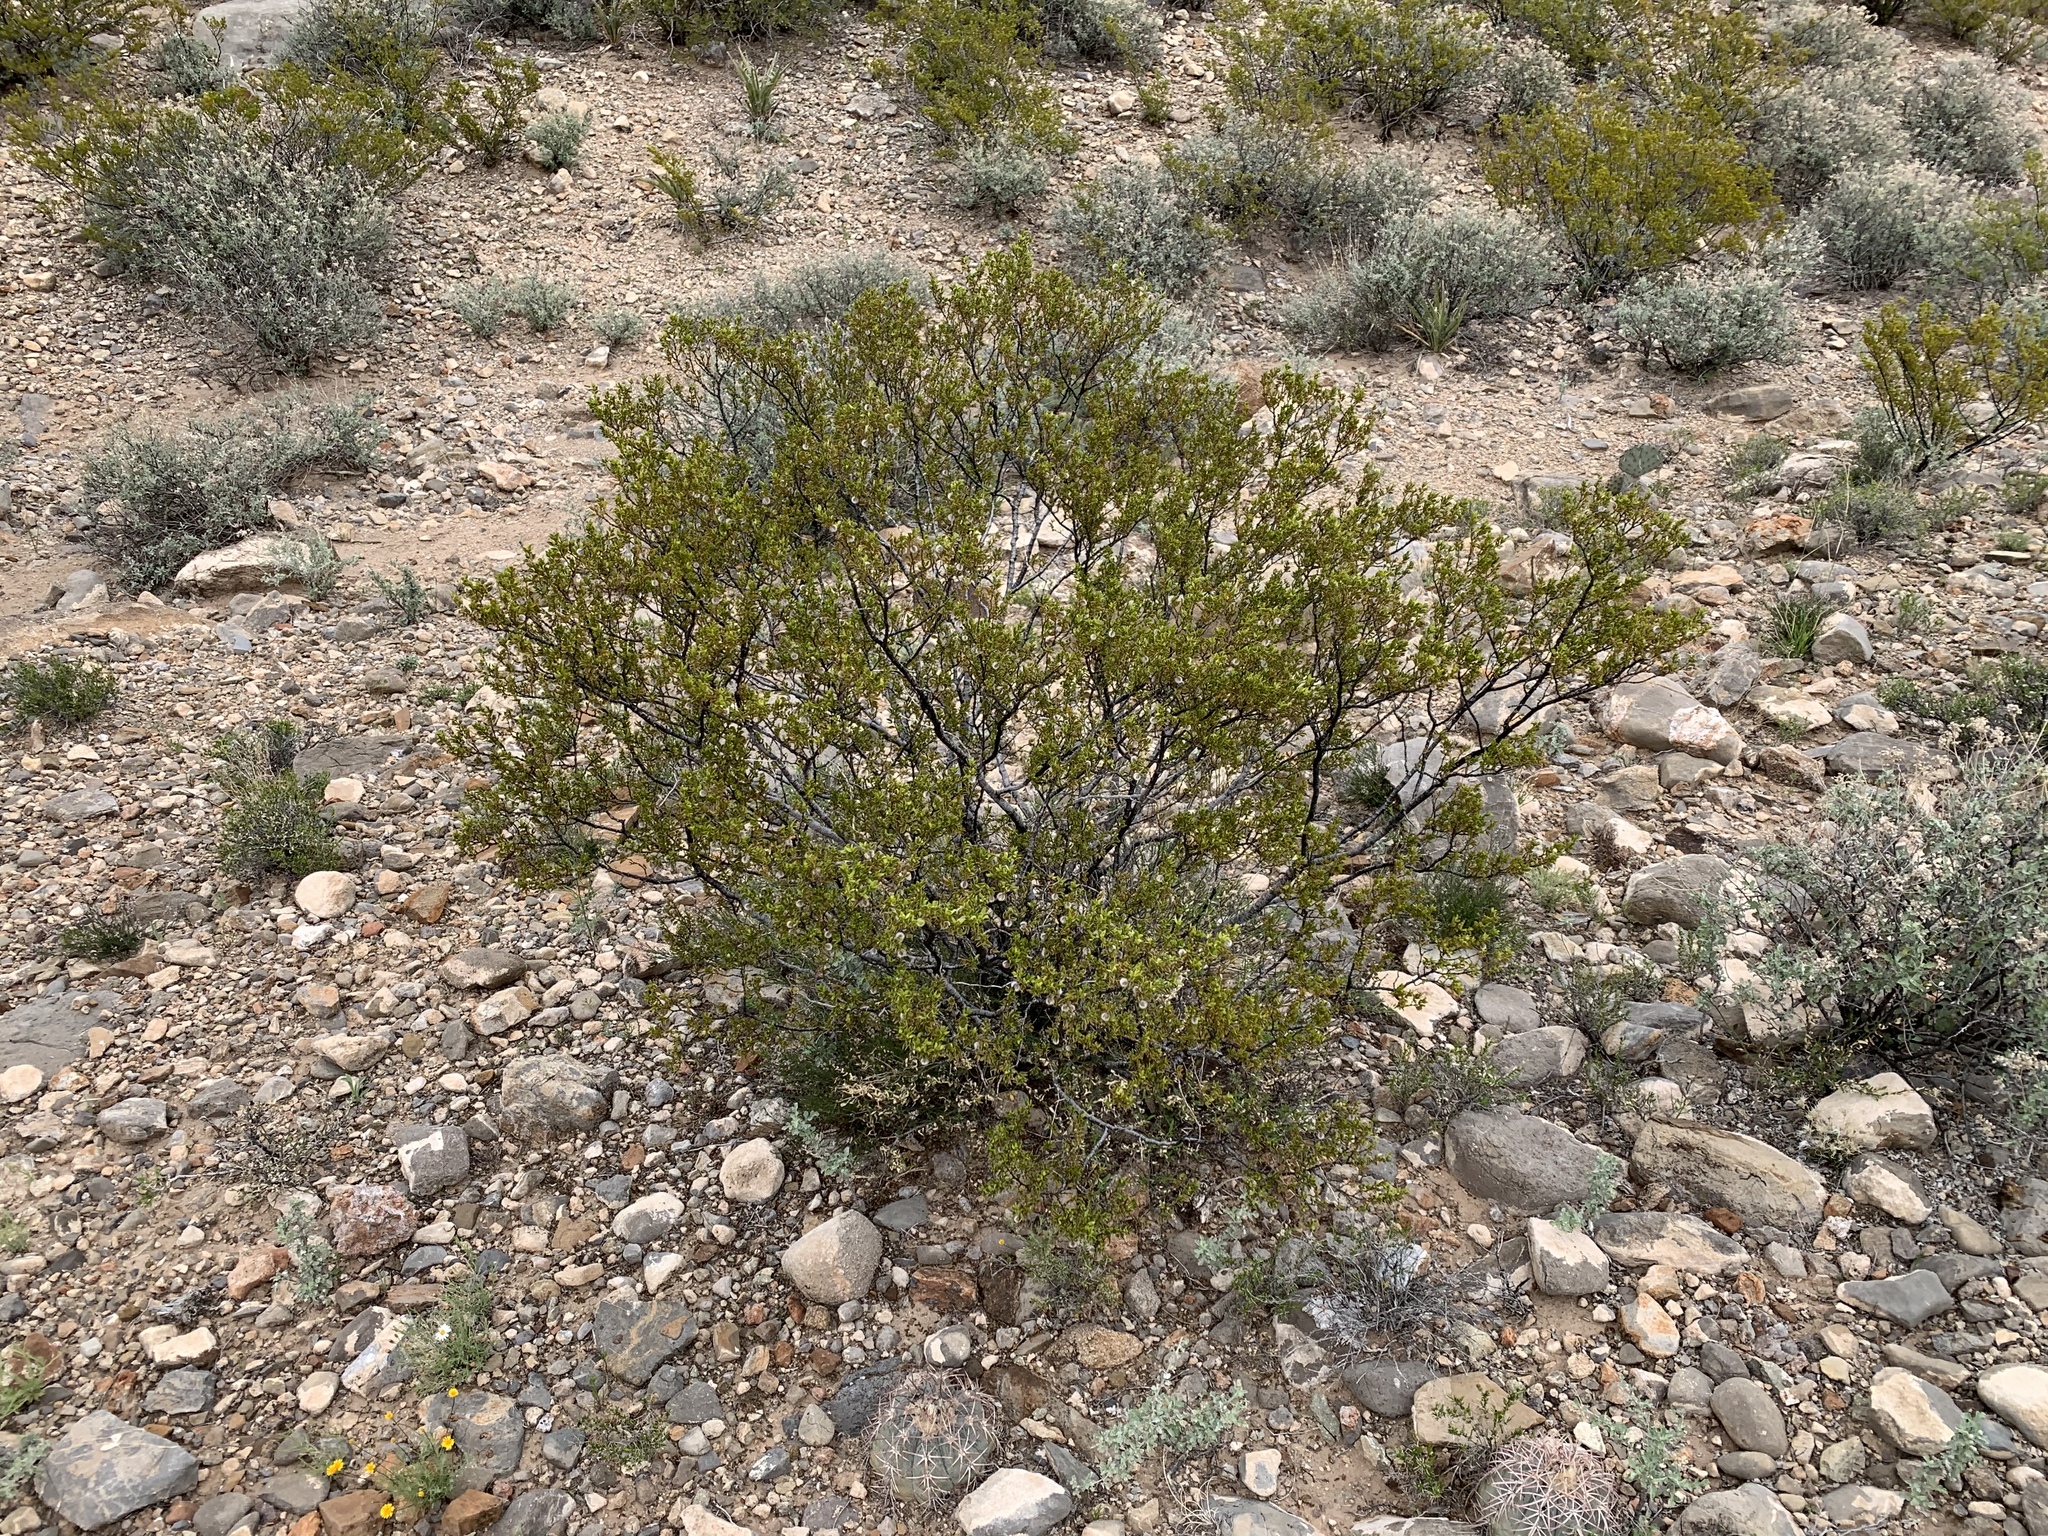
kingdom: Plantae
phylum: Tracheophyta
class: Magnoliopsida
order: Zygophyllales
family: Zygophyllaceae
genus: Larrea
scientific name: Larrea tridentata
